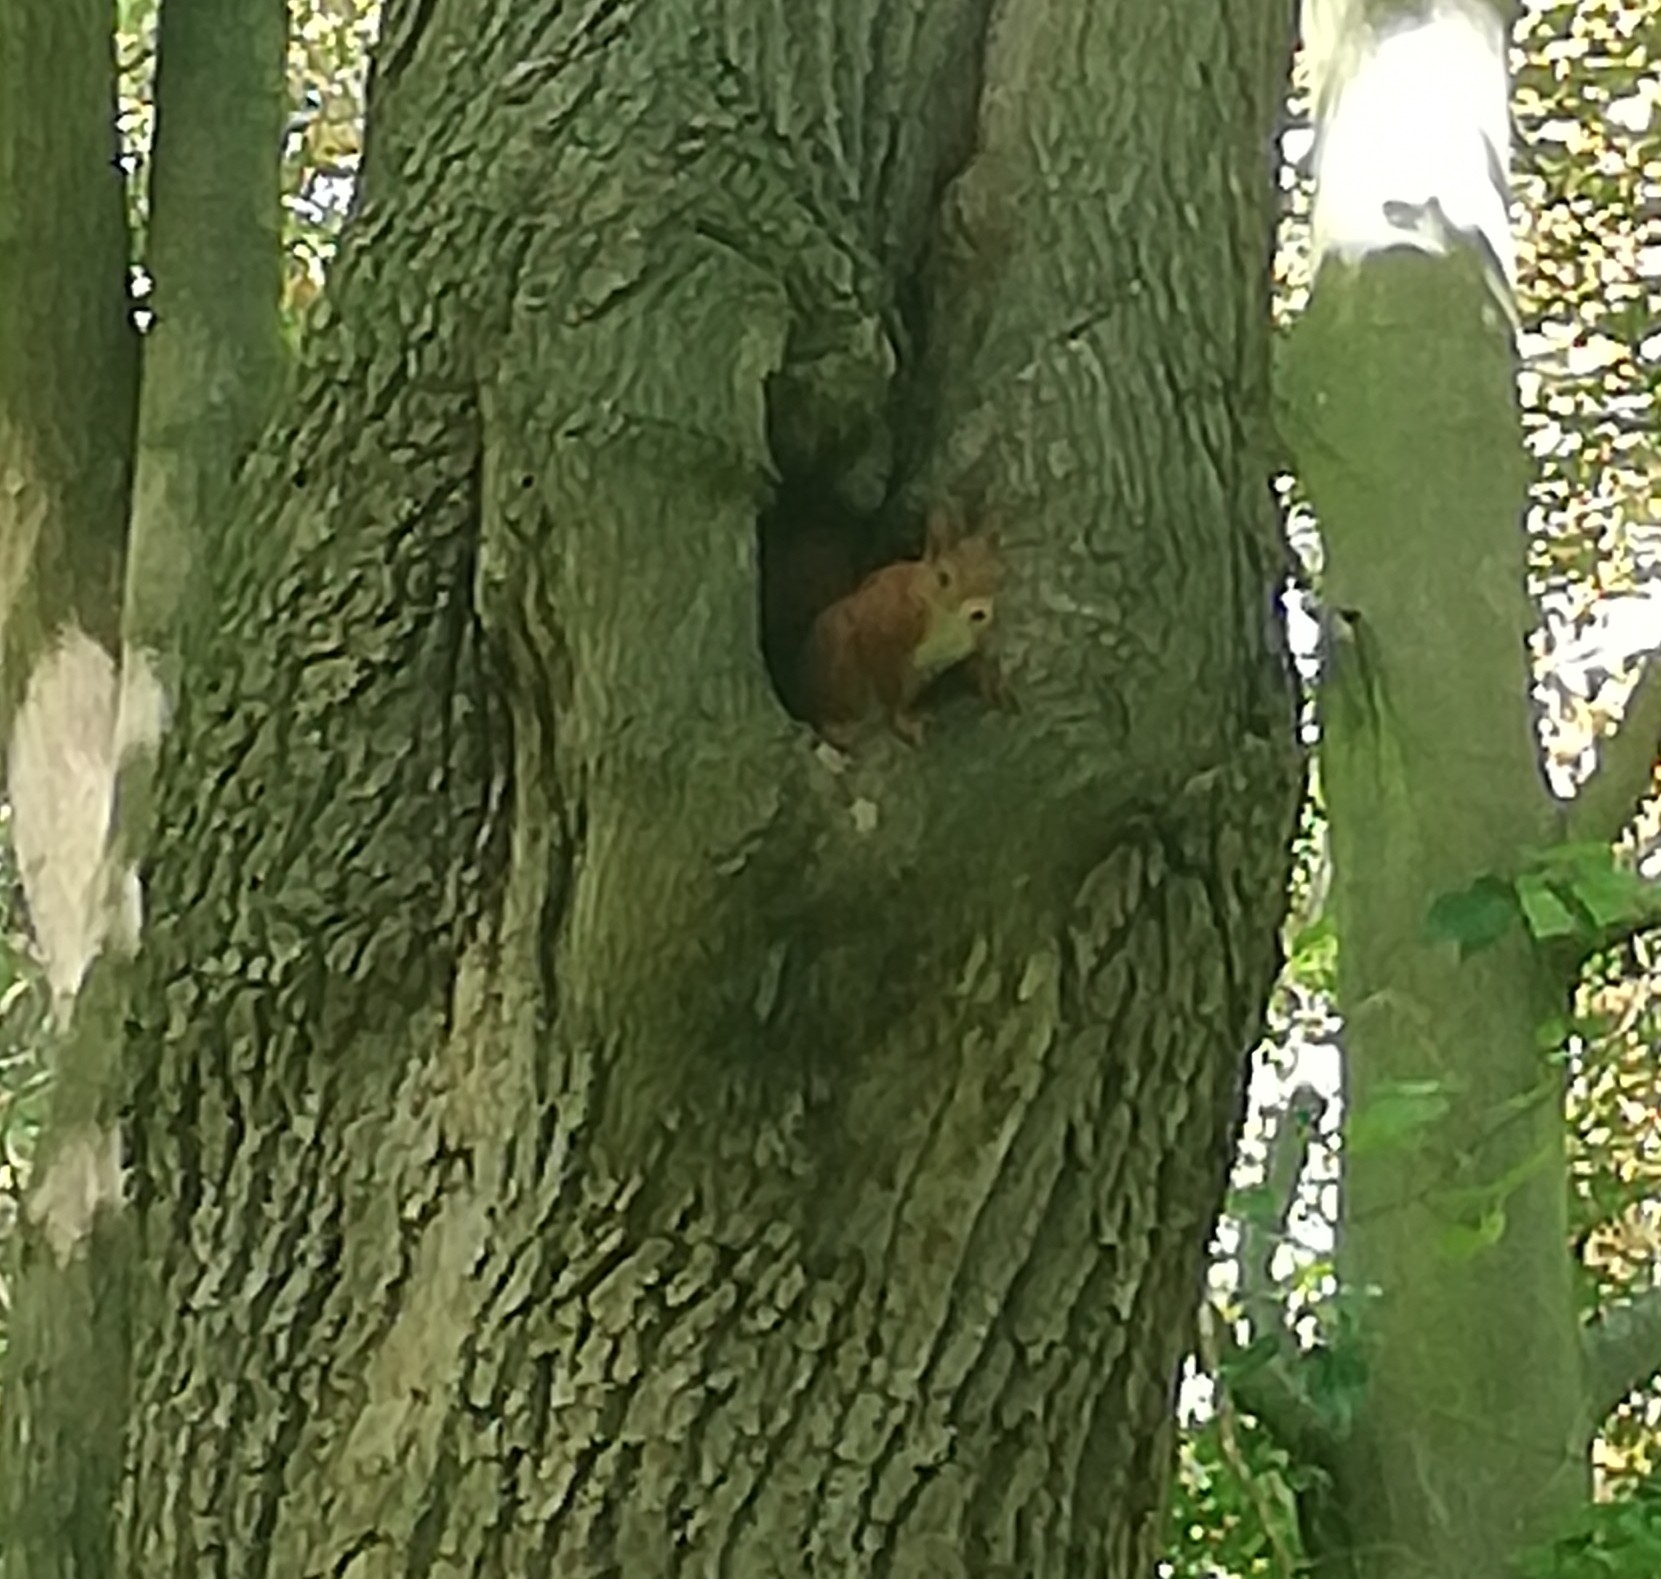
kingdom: Animalia
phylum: Chordata
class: Mammalia
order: Rodentia
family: Sciuridae
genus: Sciurus
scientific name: Sciurus vulgaris
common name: Eurasian red squirrel
